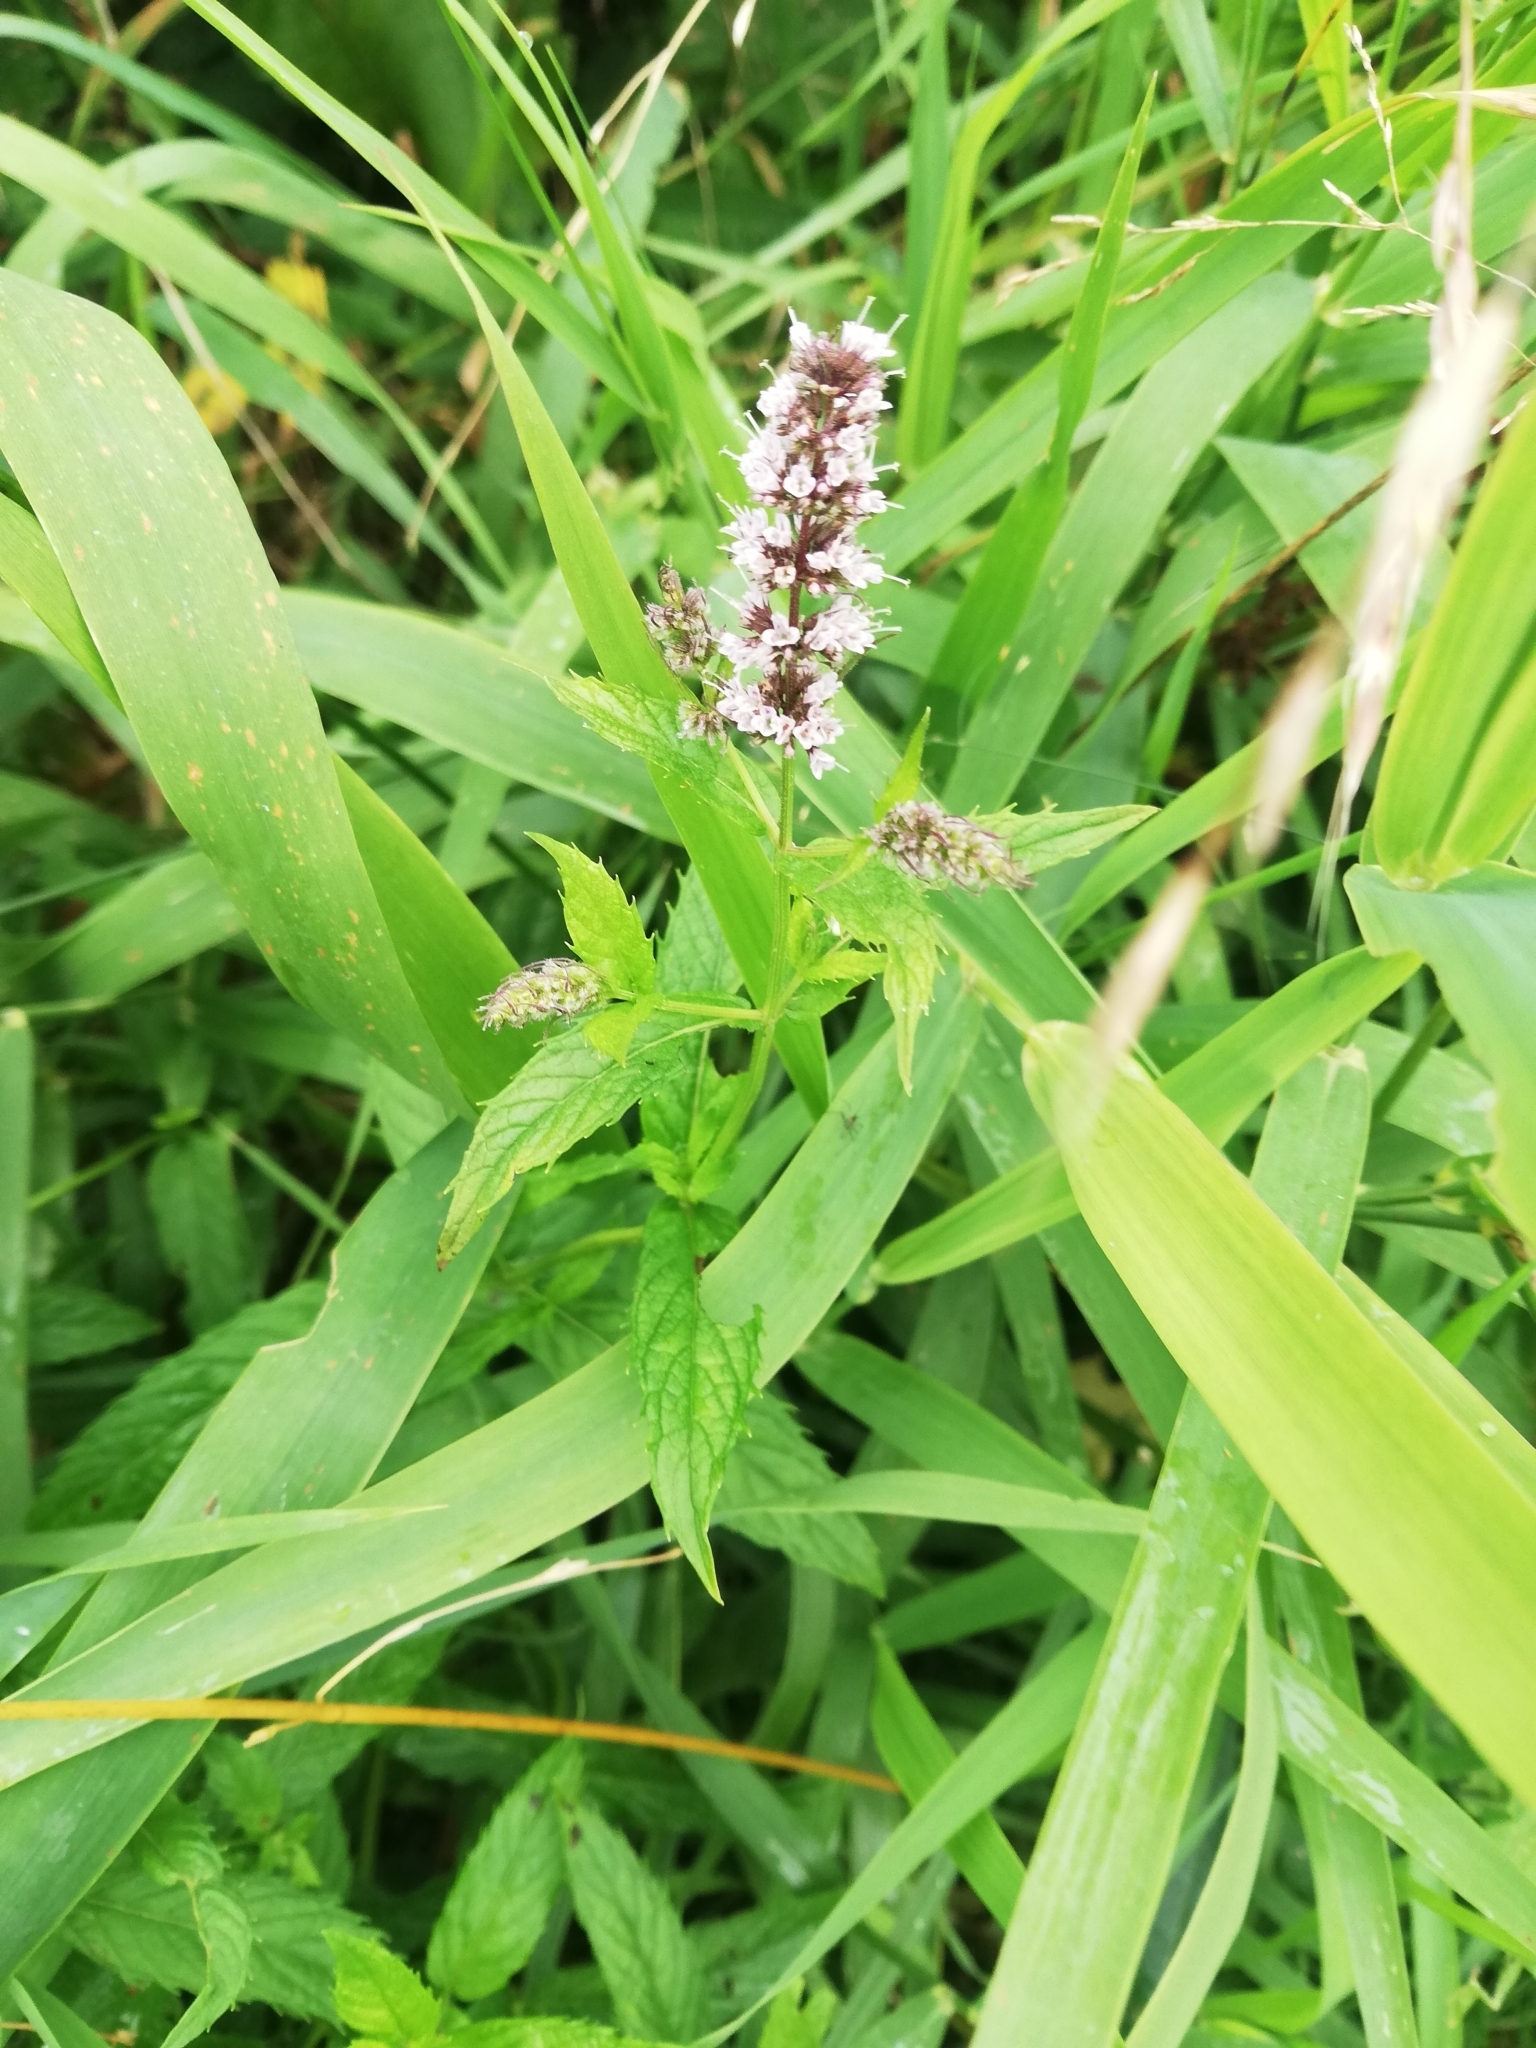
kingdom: Plantae
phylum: Tracheophyta
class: Magnoliopsida
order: Lamiales
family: Lamiaceae
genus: Mentha
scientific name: Mentha spicata
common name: Spearmint
